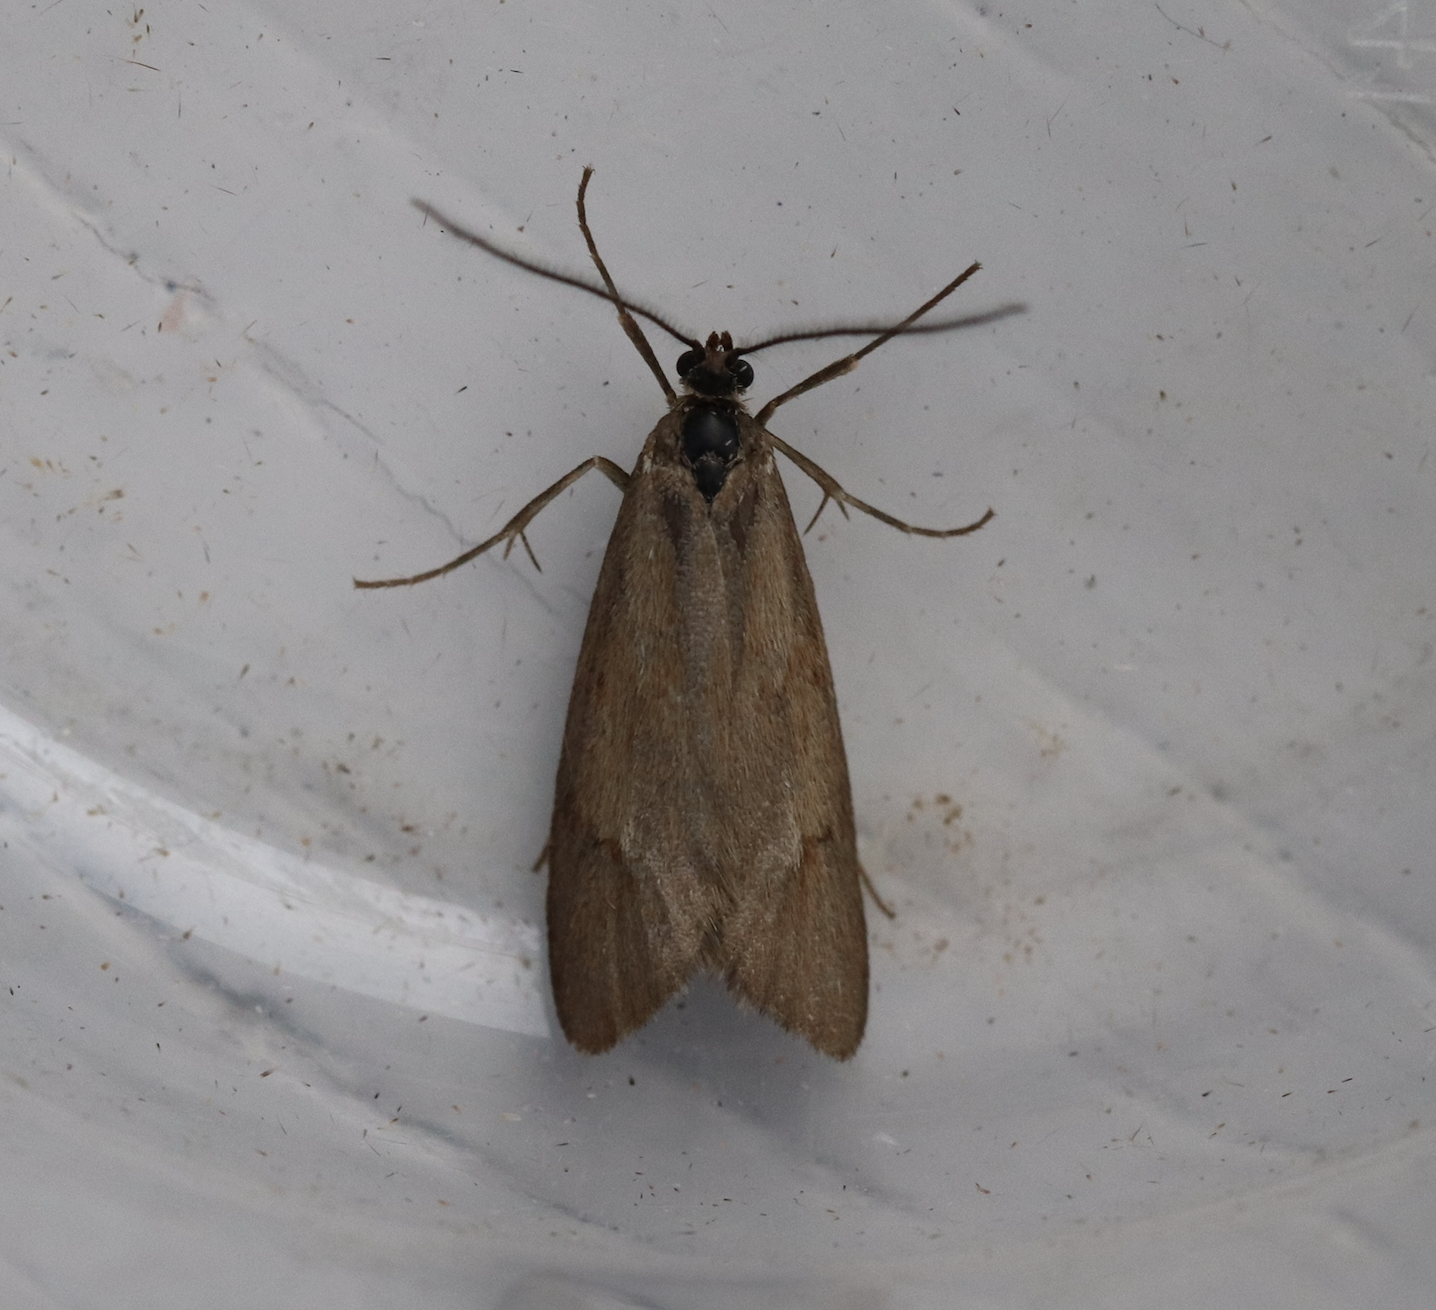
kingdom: Animalia
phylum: Arthropoda
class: Insecta
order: Lepidoptera
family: Lypusidae
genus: Diurnea
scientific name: Diurnea lipsiella
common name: November tubic
